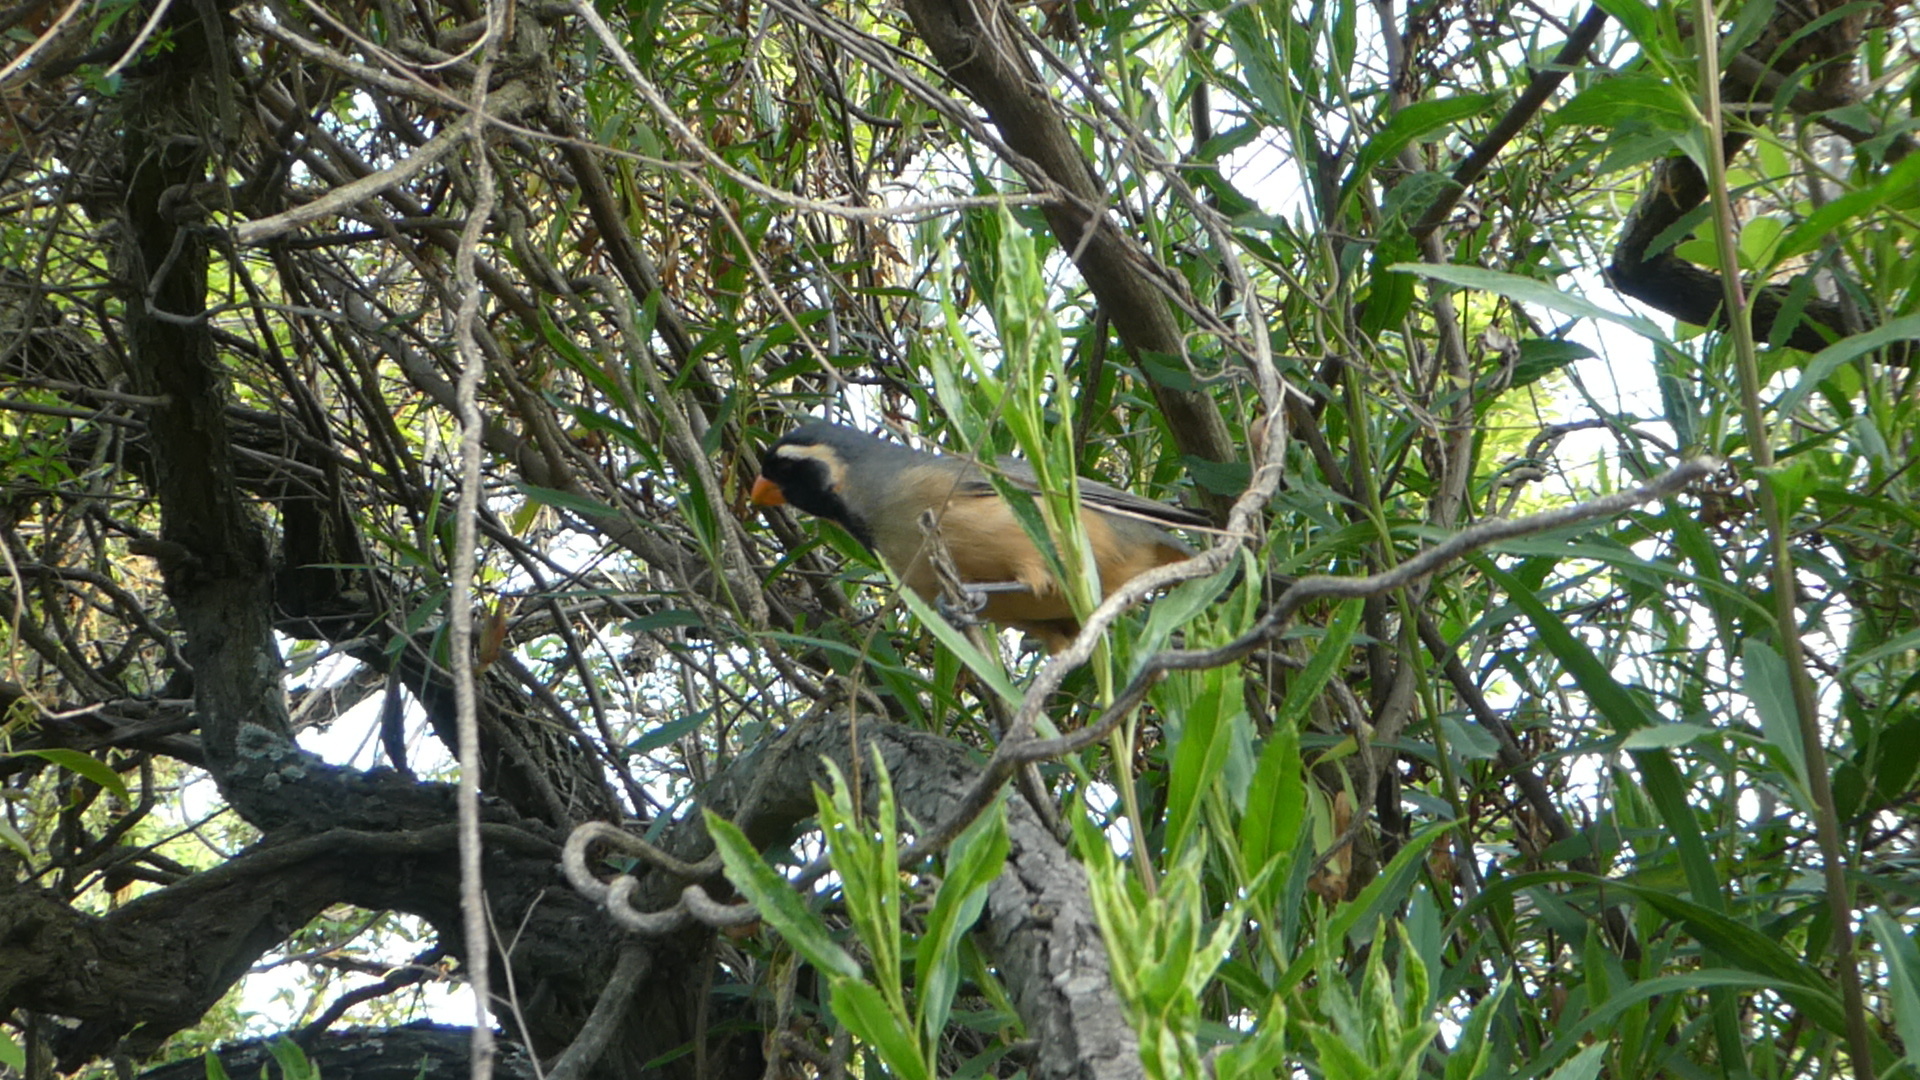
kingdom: Animalia
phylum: Chordata
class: Aves
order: Passeriformes
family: Thraupidae
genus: Saltator
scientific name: Saltator aurantiirostris
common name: Golden-billed saltator
